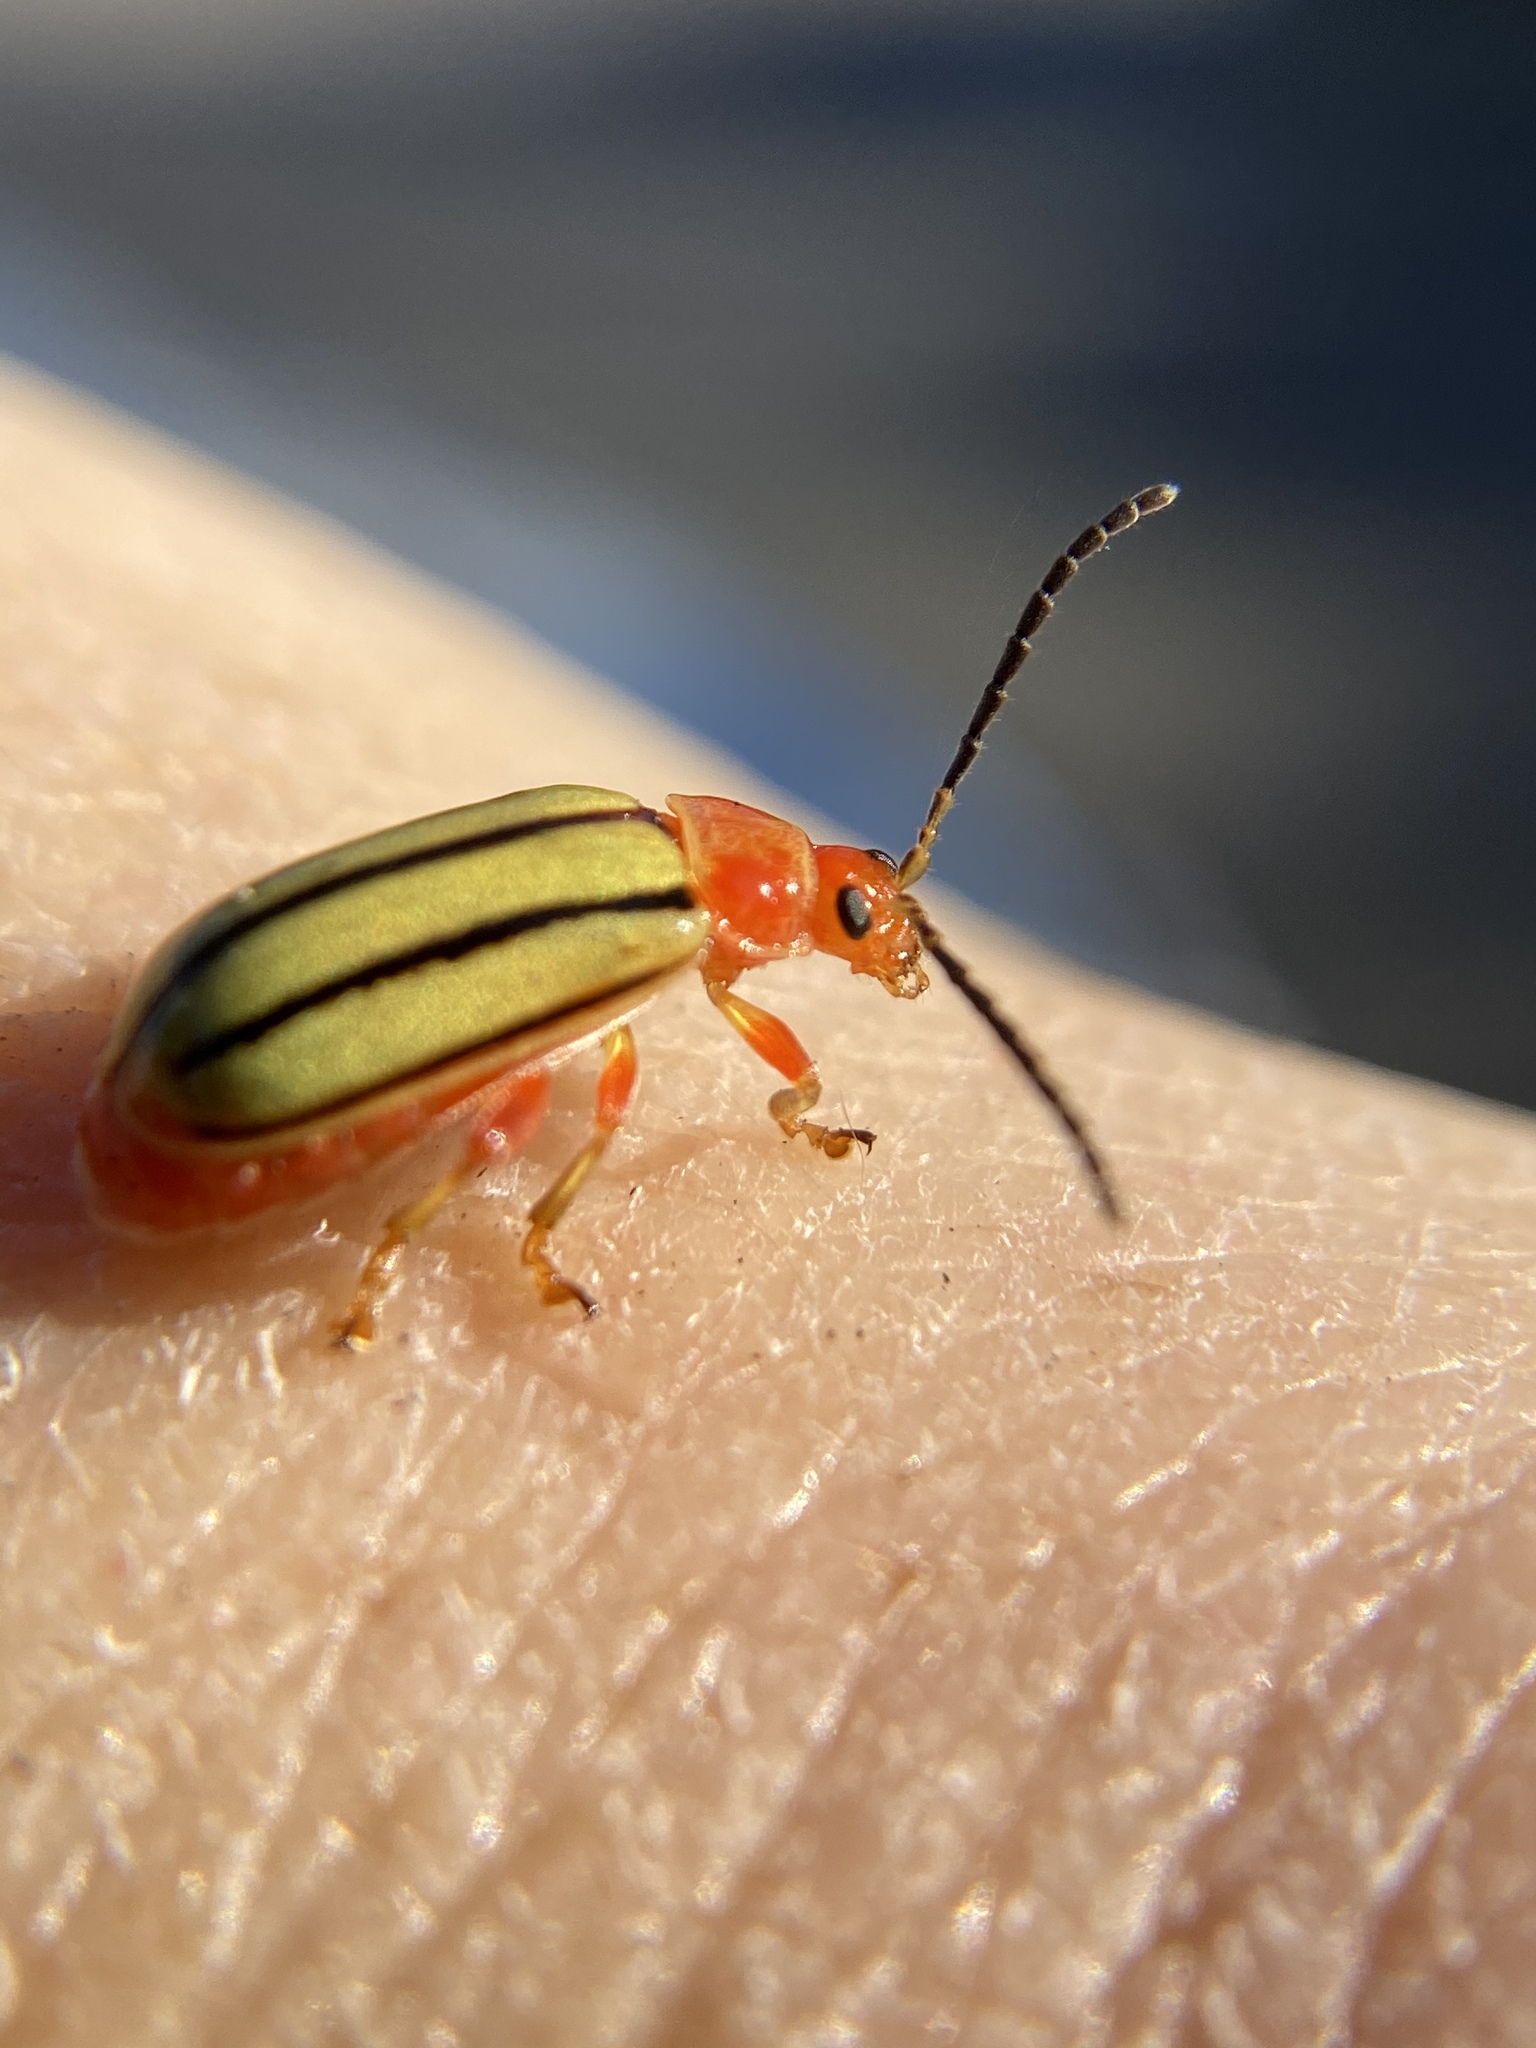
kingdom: Animalia
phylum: Arthropoda
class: Insecta
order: Coleoptera
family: Chrysomelidae
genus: Disonycha
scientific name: Disonycha
